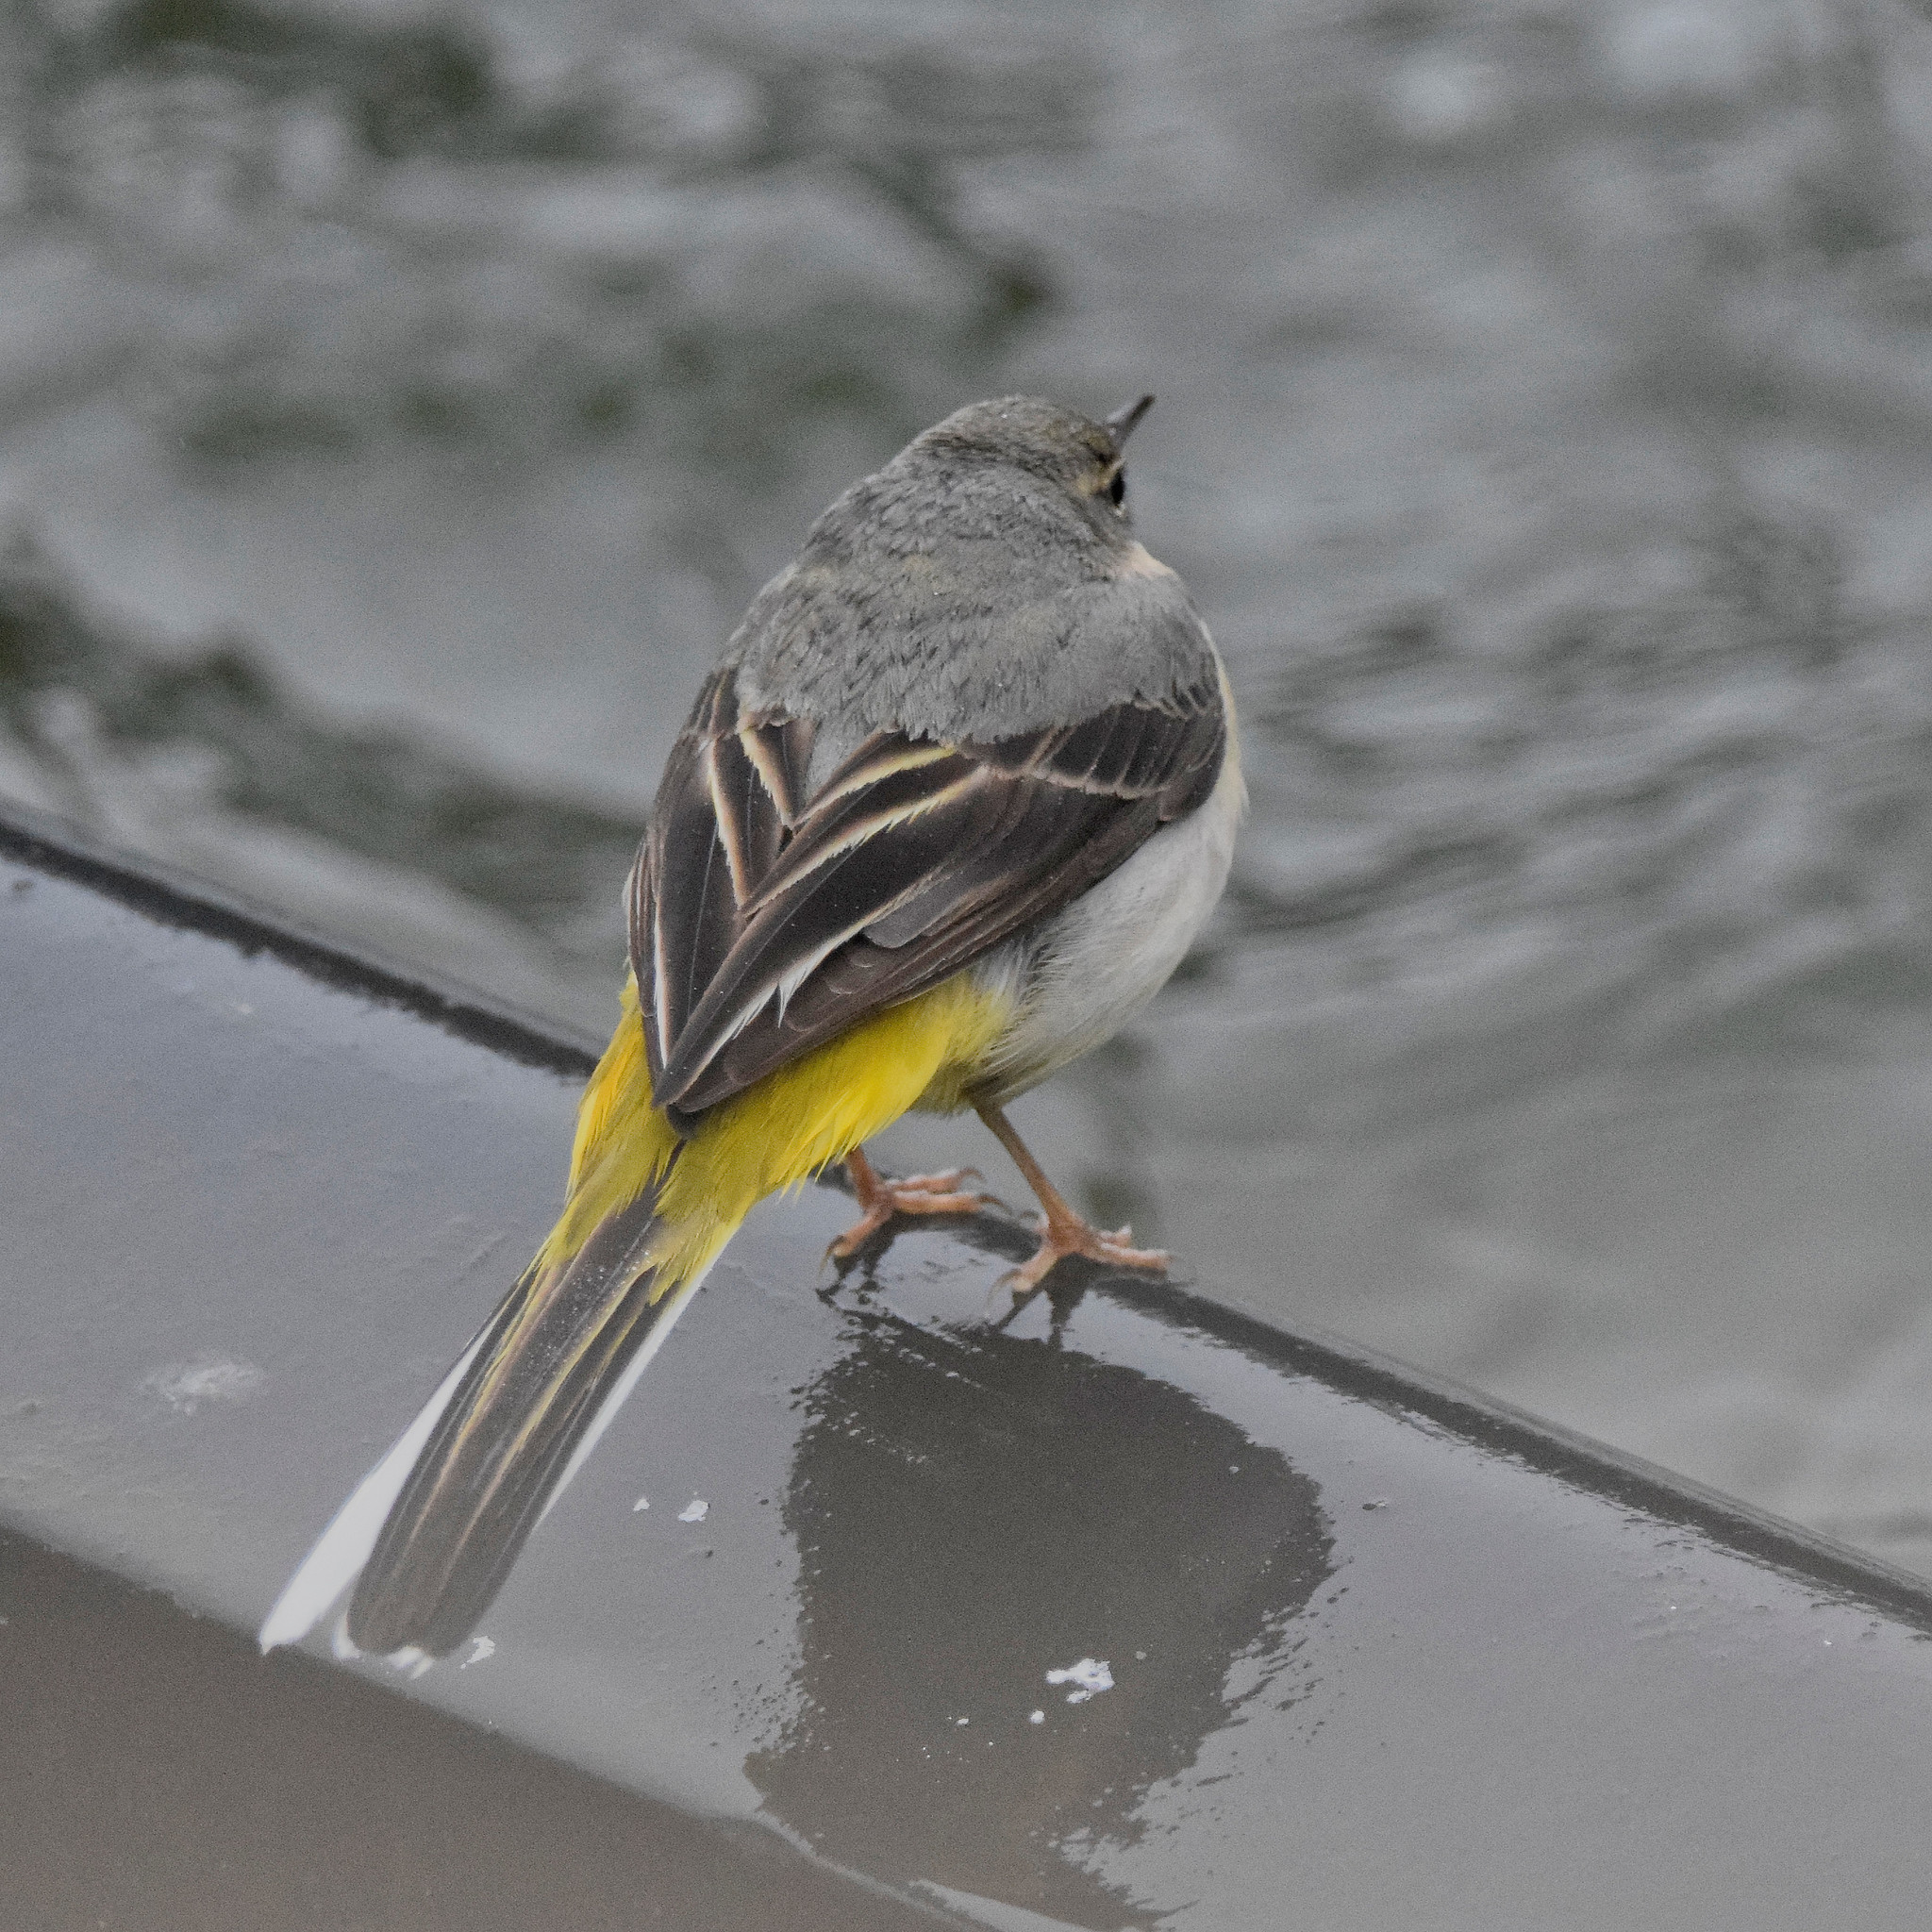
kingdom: Animalia
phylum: Chordata
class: Aves
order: Passeriformes
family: Motacillidae
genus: Motacilla
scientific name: Motacilla cinerea
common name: Grey wagtail
